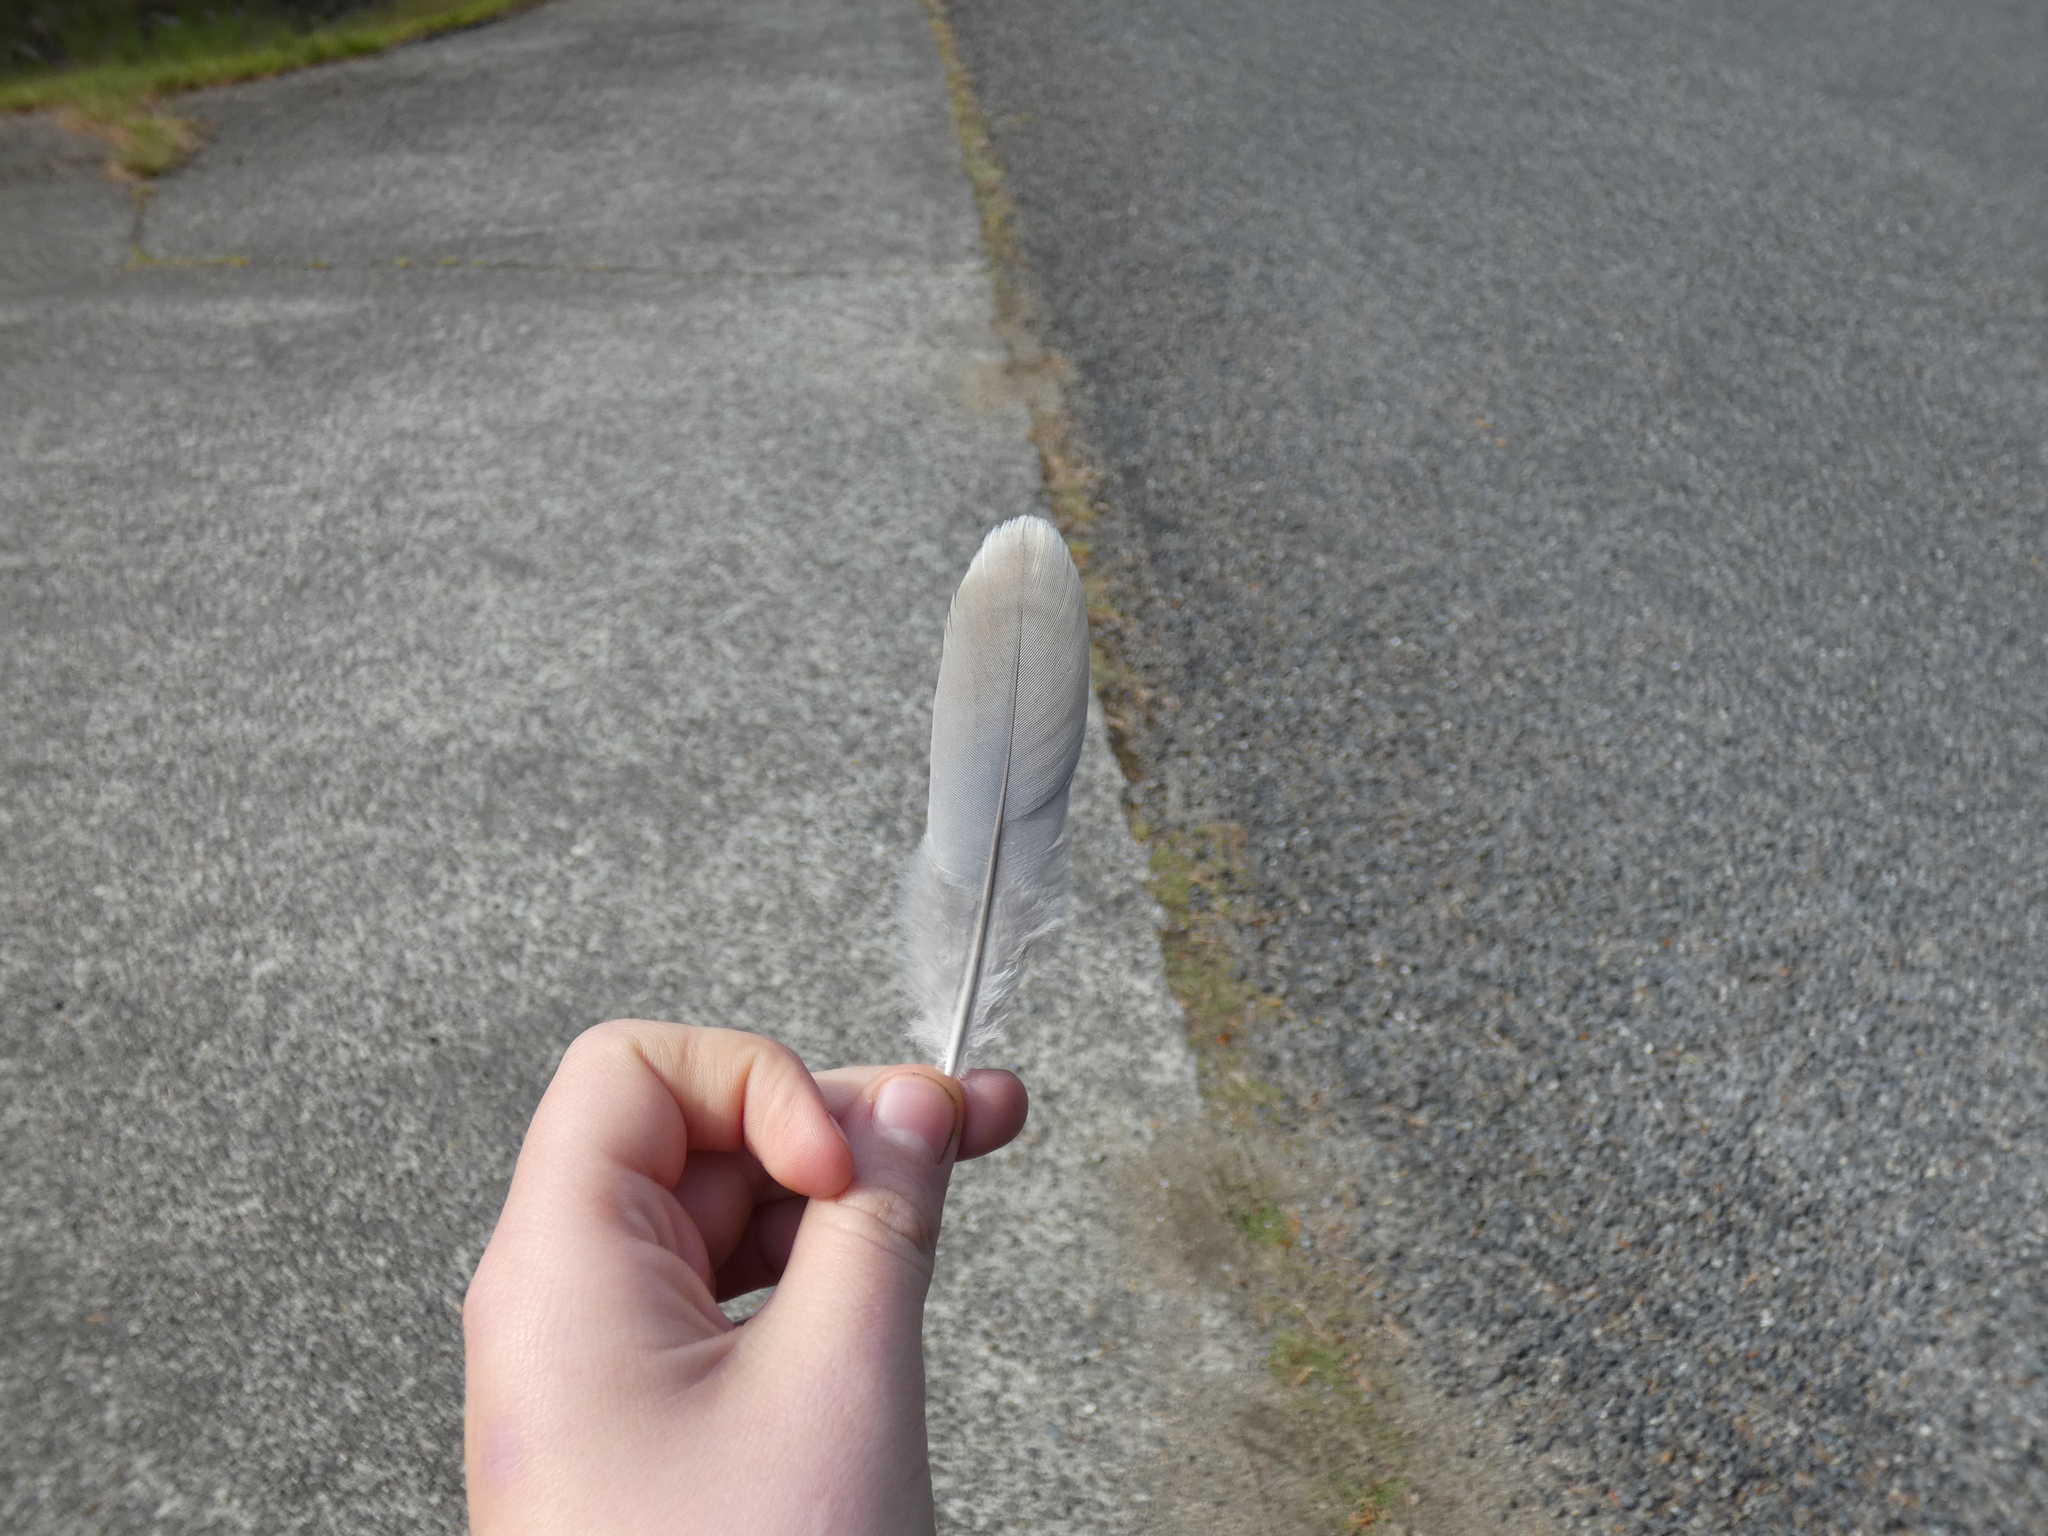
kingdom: Animalia
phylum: Chordata
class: Aves
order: Columbiformes
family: Columbidae
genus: Streptopelia
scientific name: Streptopelia decaocto
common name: Eurasian collared dove
